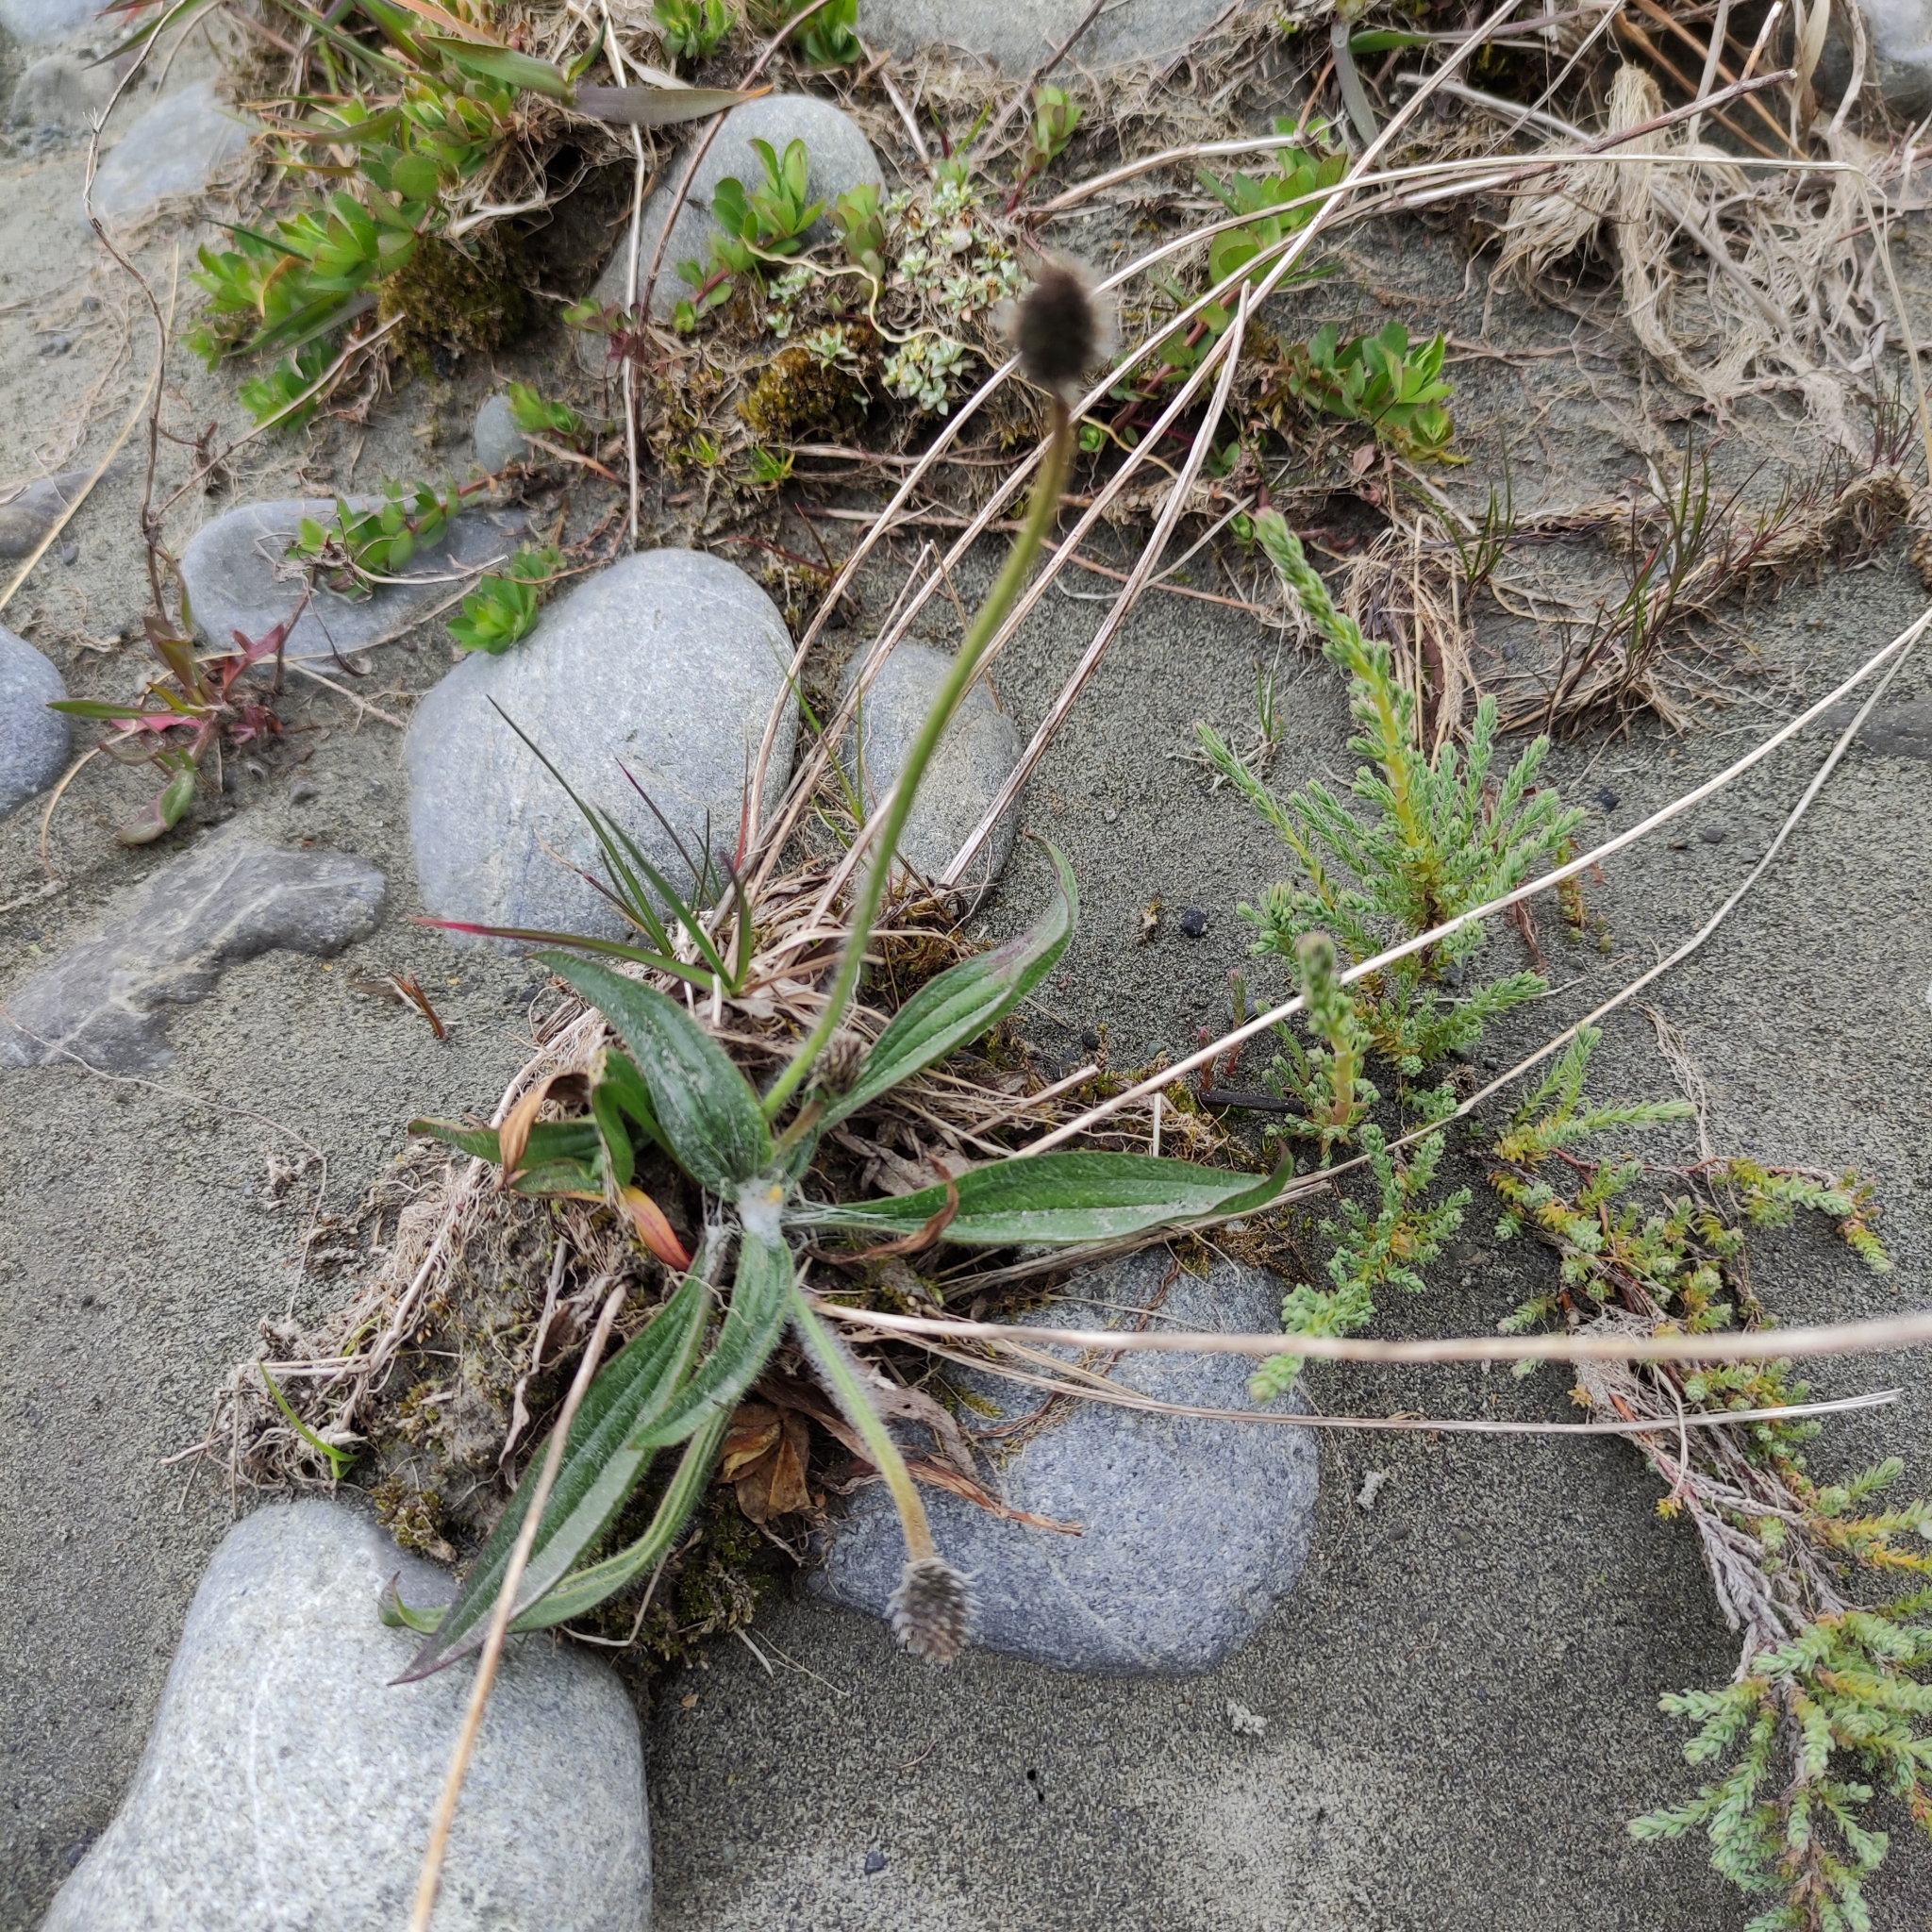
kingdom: Plantae
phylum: Tracheophyta
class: Magnoliopsida
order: Lamiales
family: Plantaginaceae
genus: Plantago
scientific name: Plantago lanceolata
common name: Ribwort plantain
